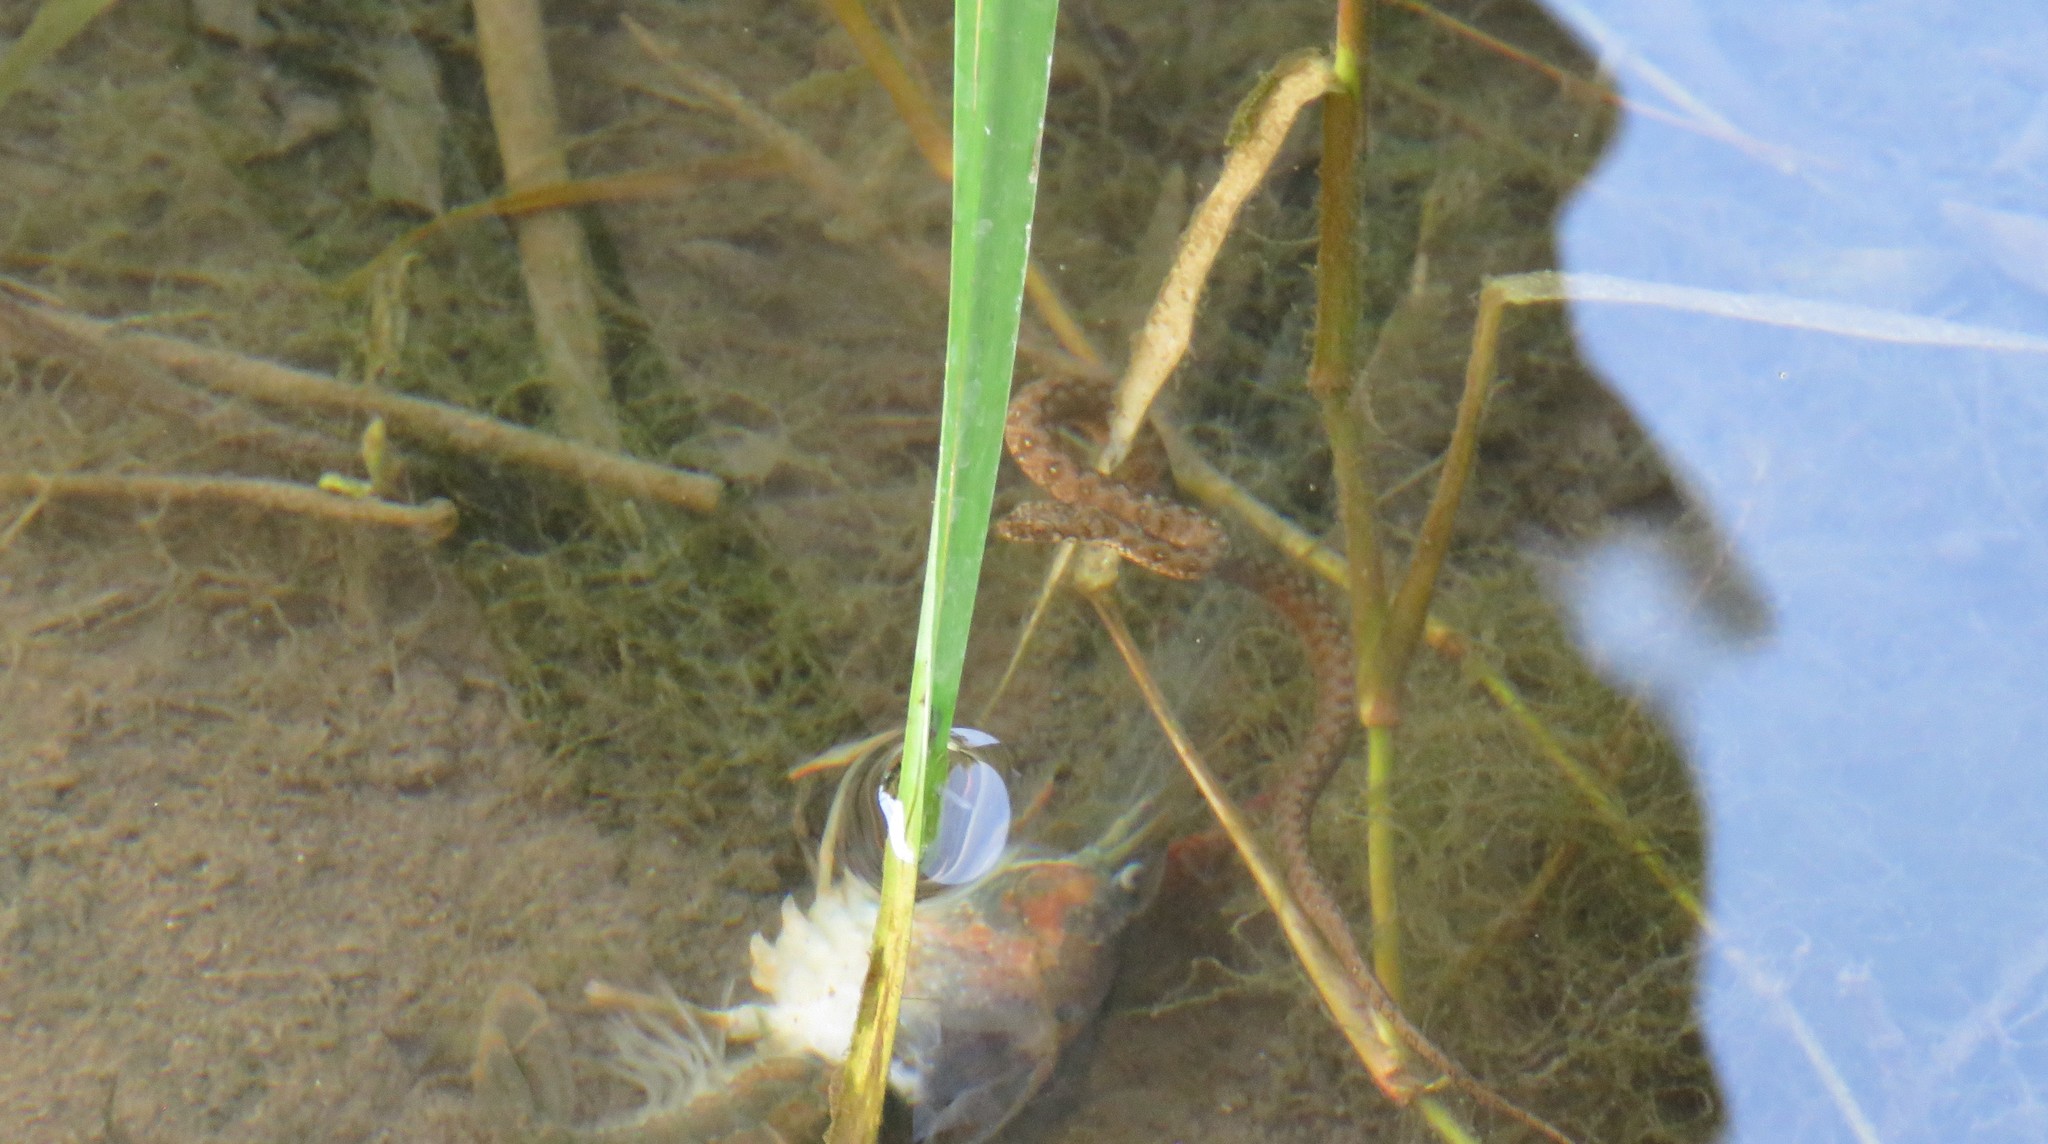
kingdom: Animalia
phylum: Chordata
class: Squamata
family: Colubridae
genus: Natrix
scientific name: Natrix maura
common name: Viperine water snake
